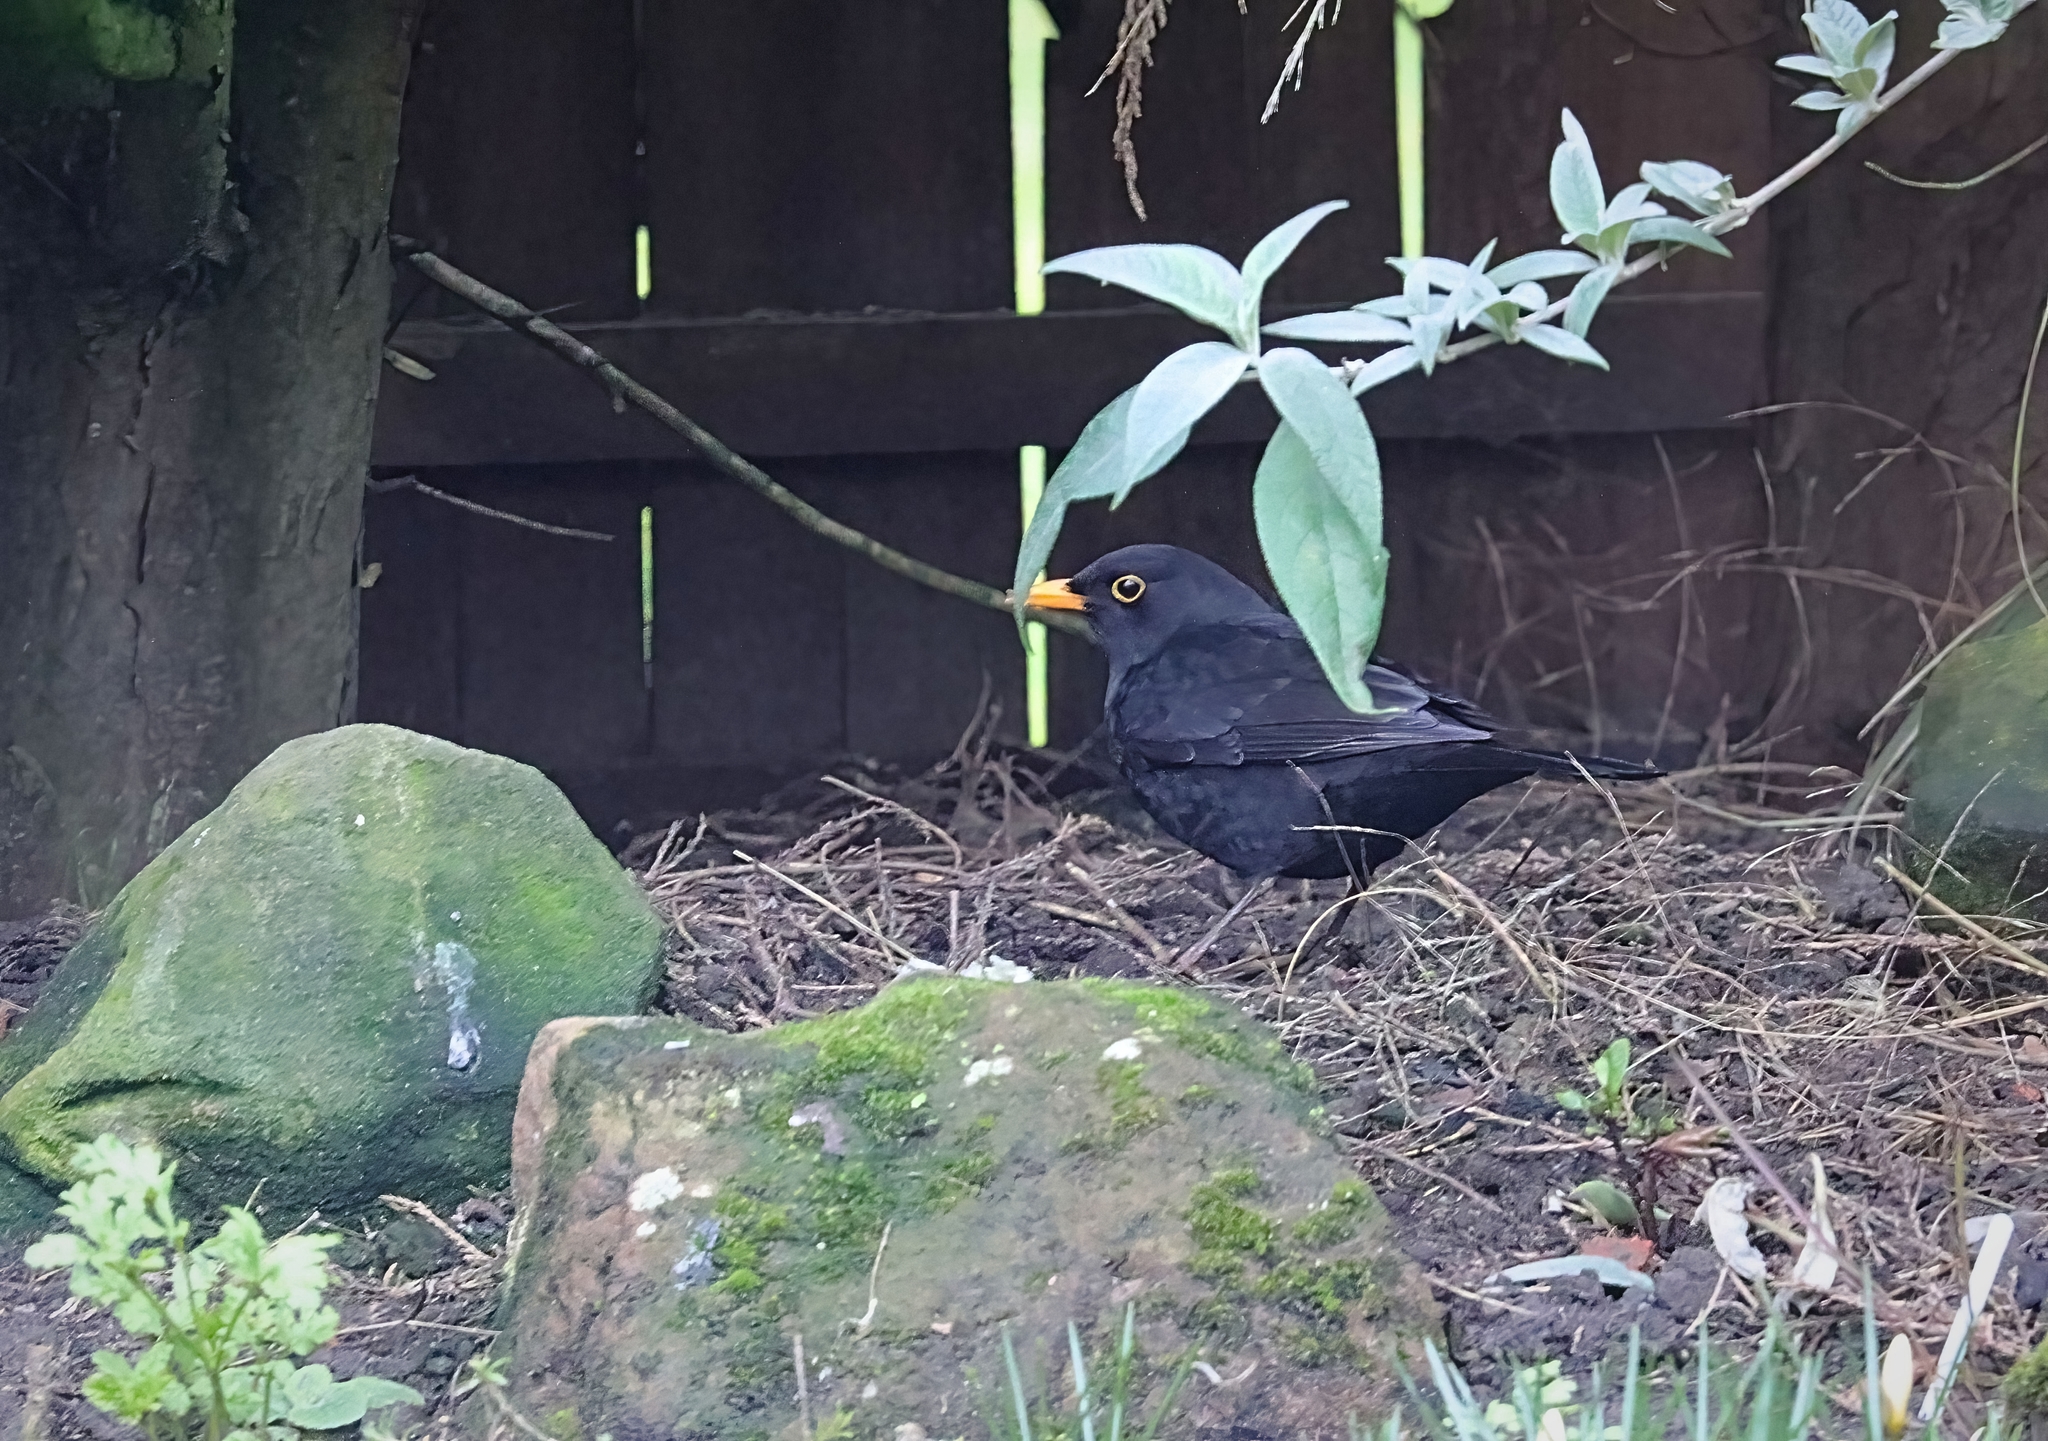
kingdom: Animalia
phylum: Chordata
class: Aves
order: Passeriformes
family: Turdidae
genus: Turdus
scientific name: Turdus merula
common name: Common blackbird
